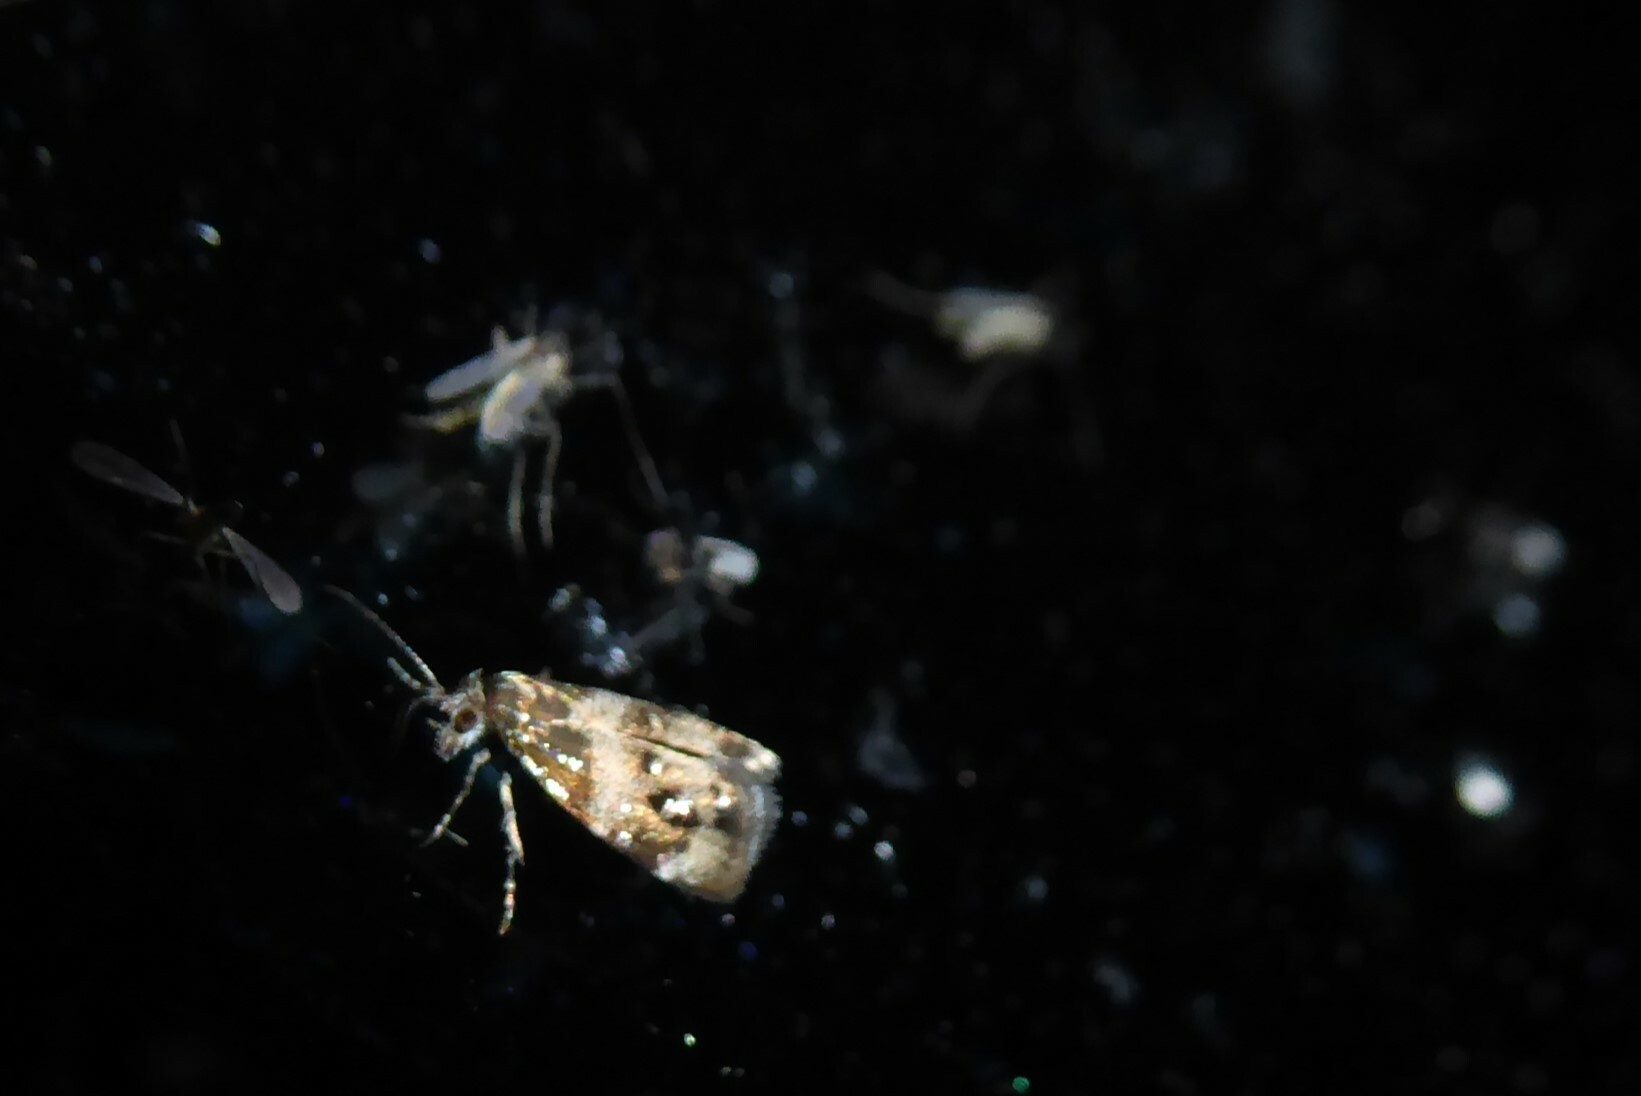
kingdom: Animalia
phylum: Arthropoda
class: Insecta
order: Lepidoptera
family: Choreutidae
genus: Tebenna
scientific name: Tebenna micalis
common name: Vagrant twitcher
